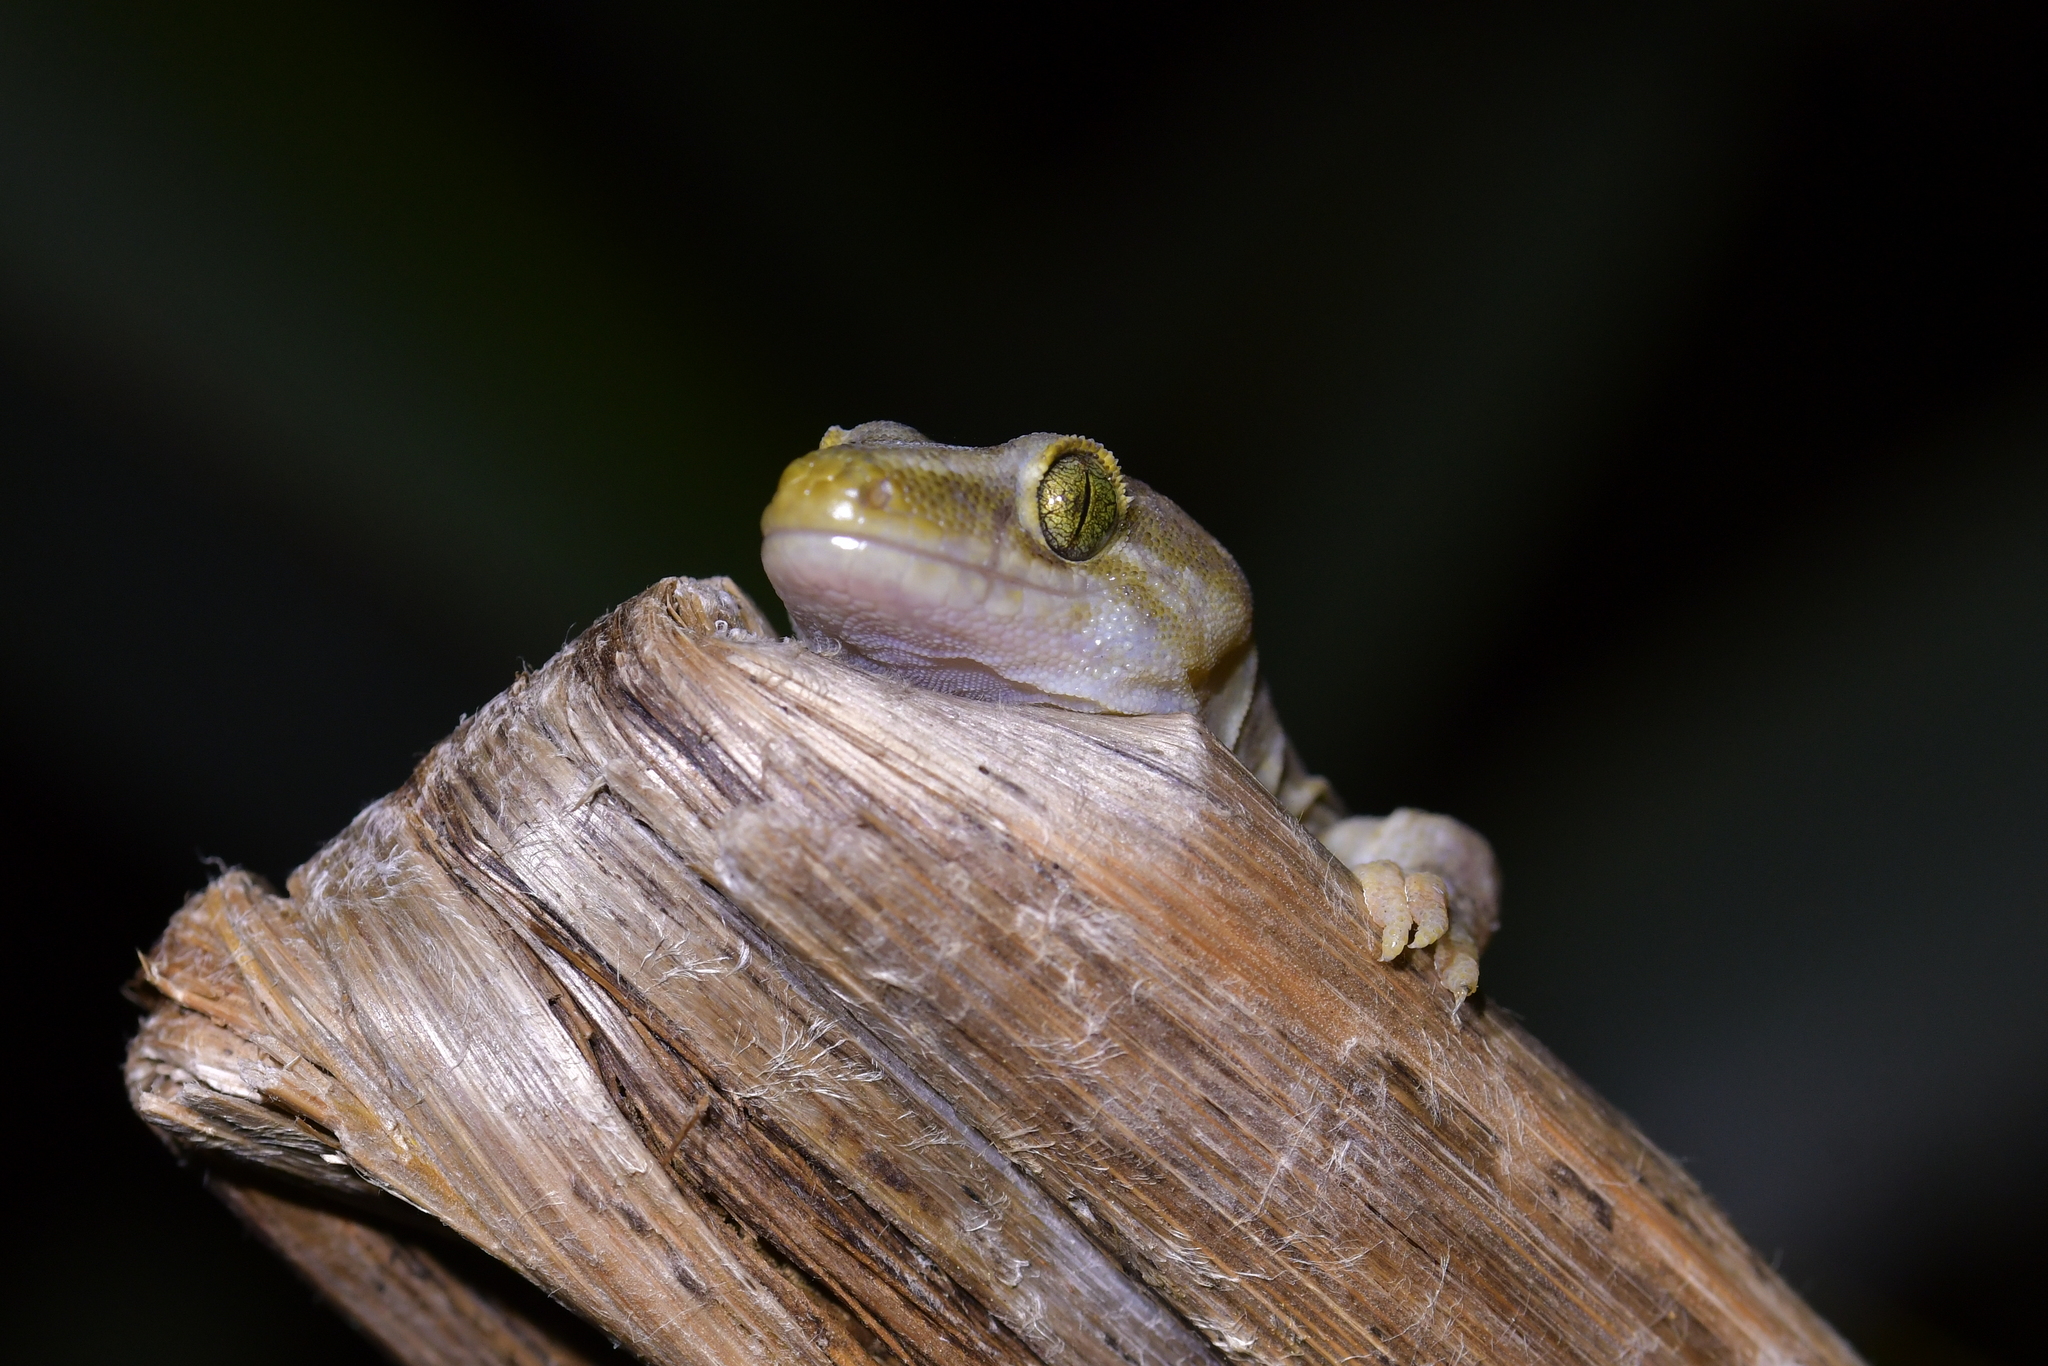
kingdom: Animalia
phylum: Chordata
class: Squamata
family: Diplodactylidae
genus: Woodworthia
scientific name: Woodworthia maculata
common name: Raukawa gecko
